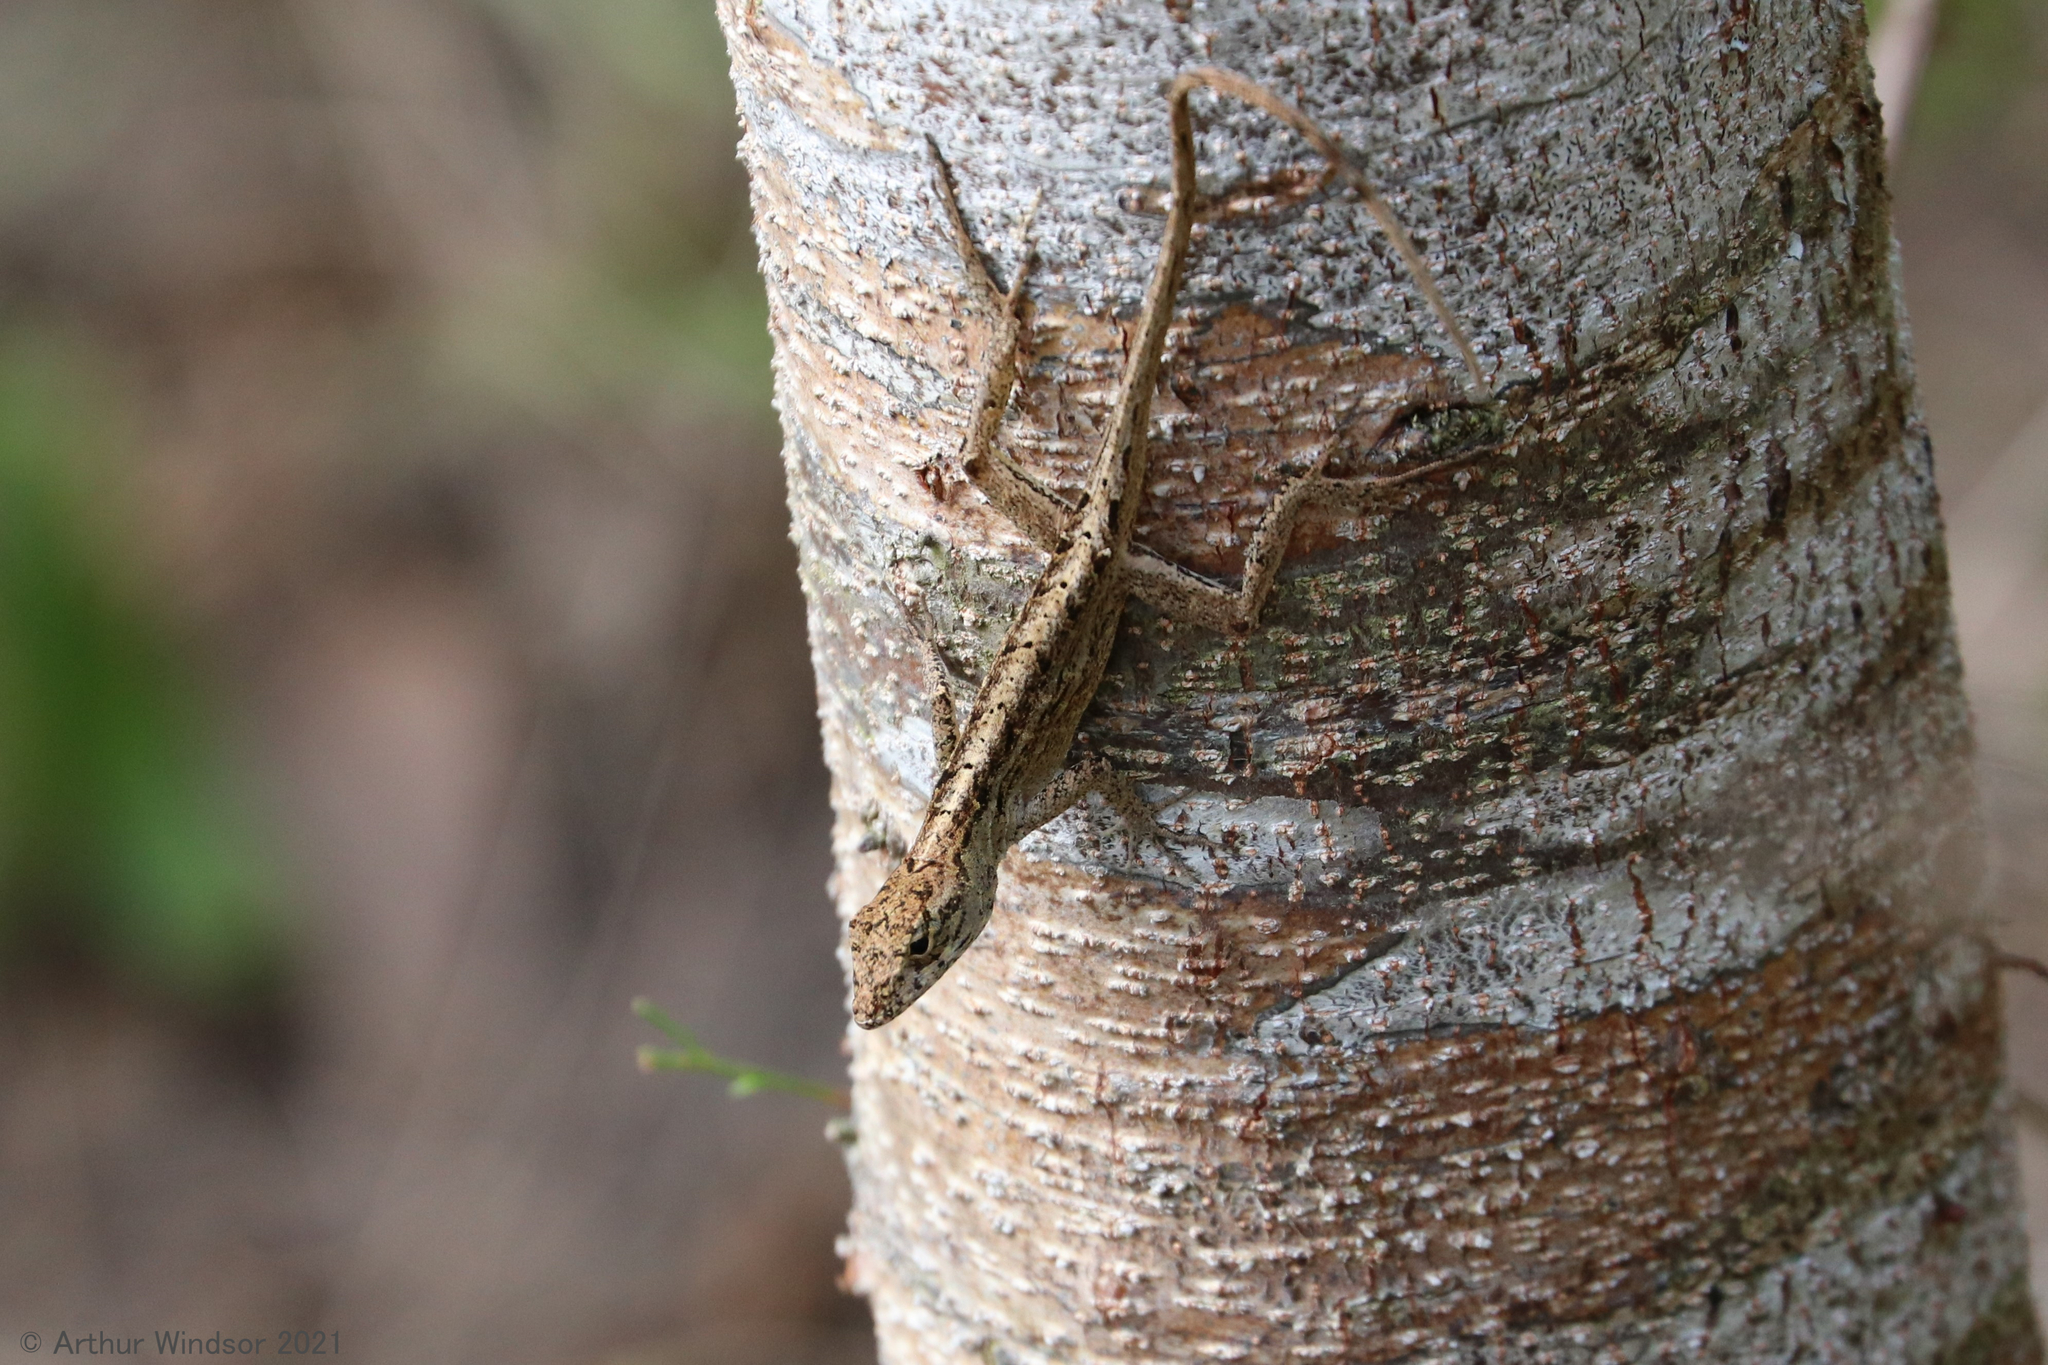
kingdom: Animalia
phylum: Chordata
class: Squamata
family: Dactyloidae
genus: Anolis
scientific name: Anolis sagrei
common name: Brown anole
